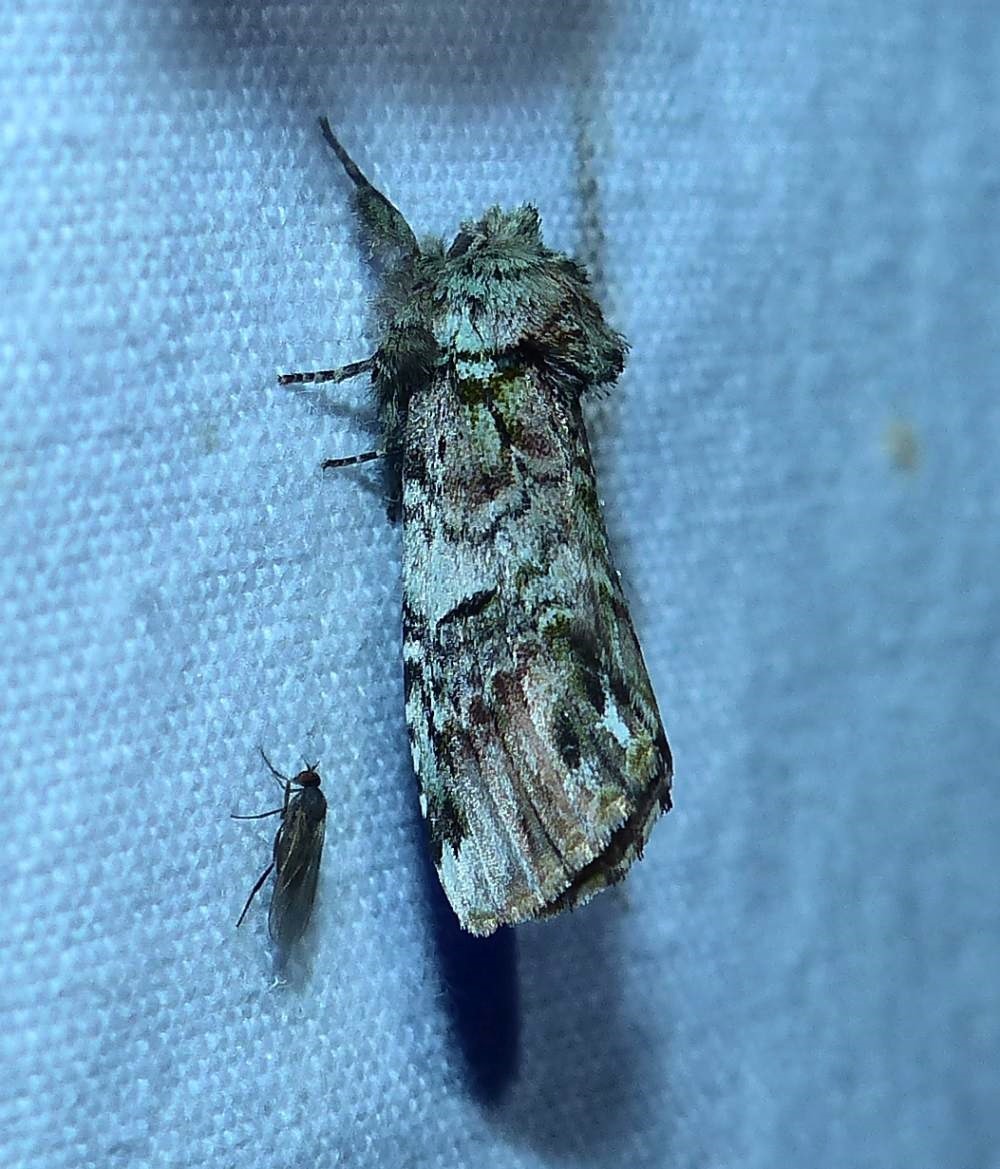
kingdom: Animalia
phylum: Arthropoda
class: Insecta
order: Lepidoptera
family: Notodontidae
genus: Schizura
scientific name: Schizura
